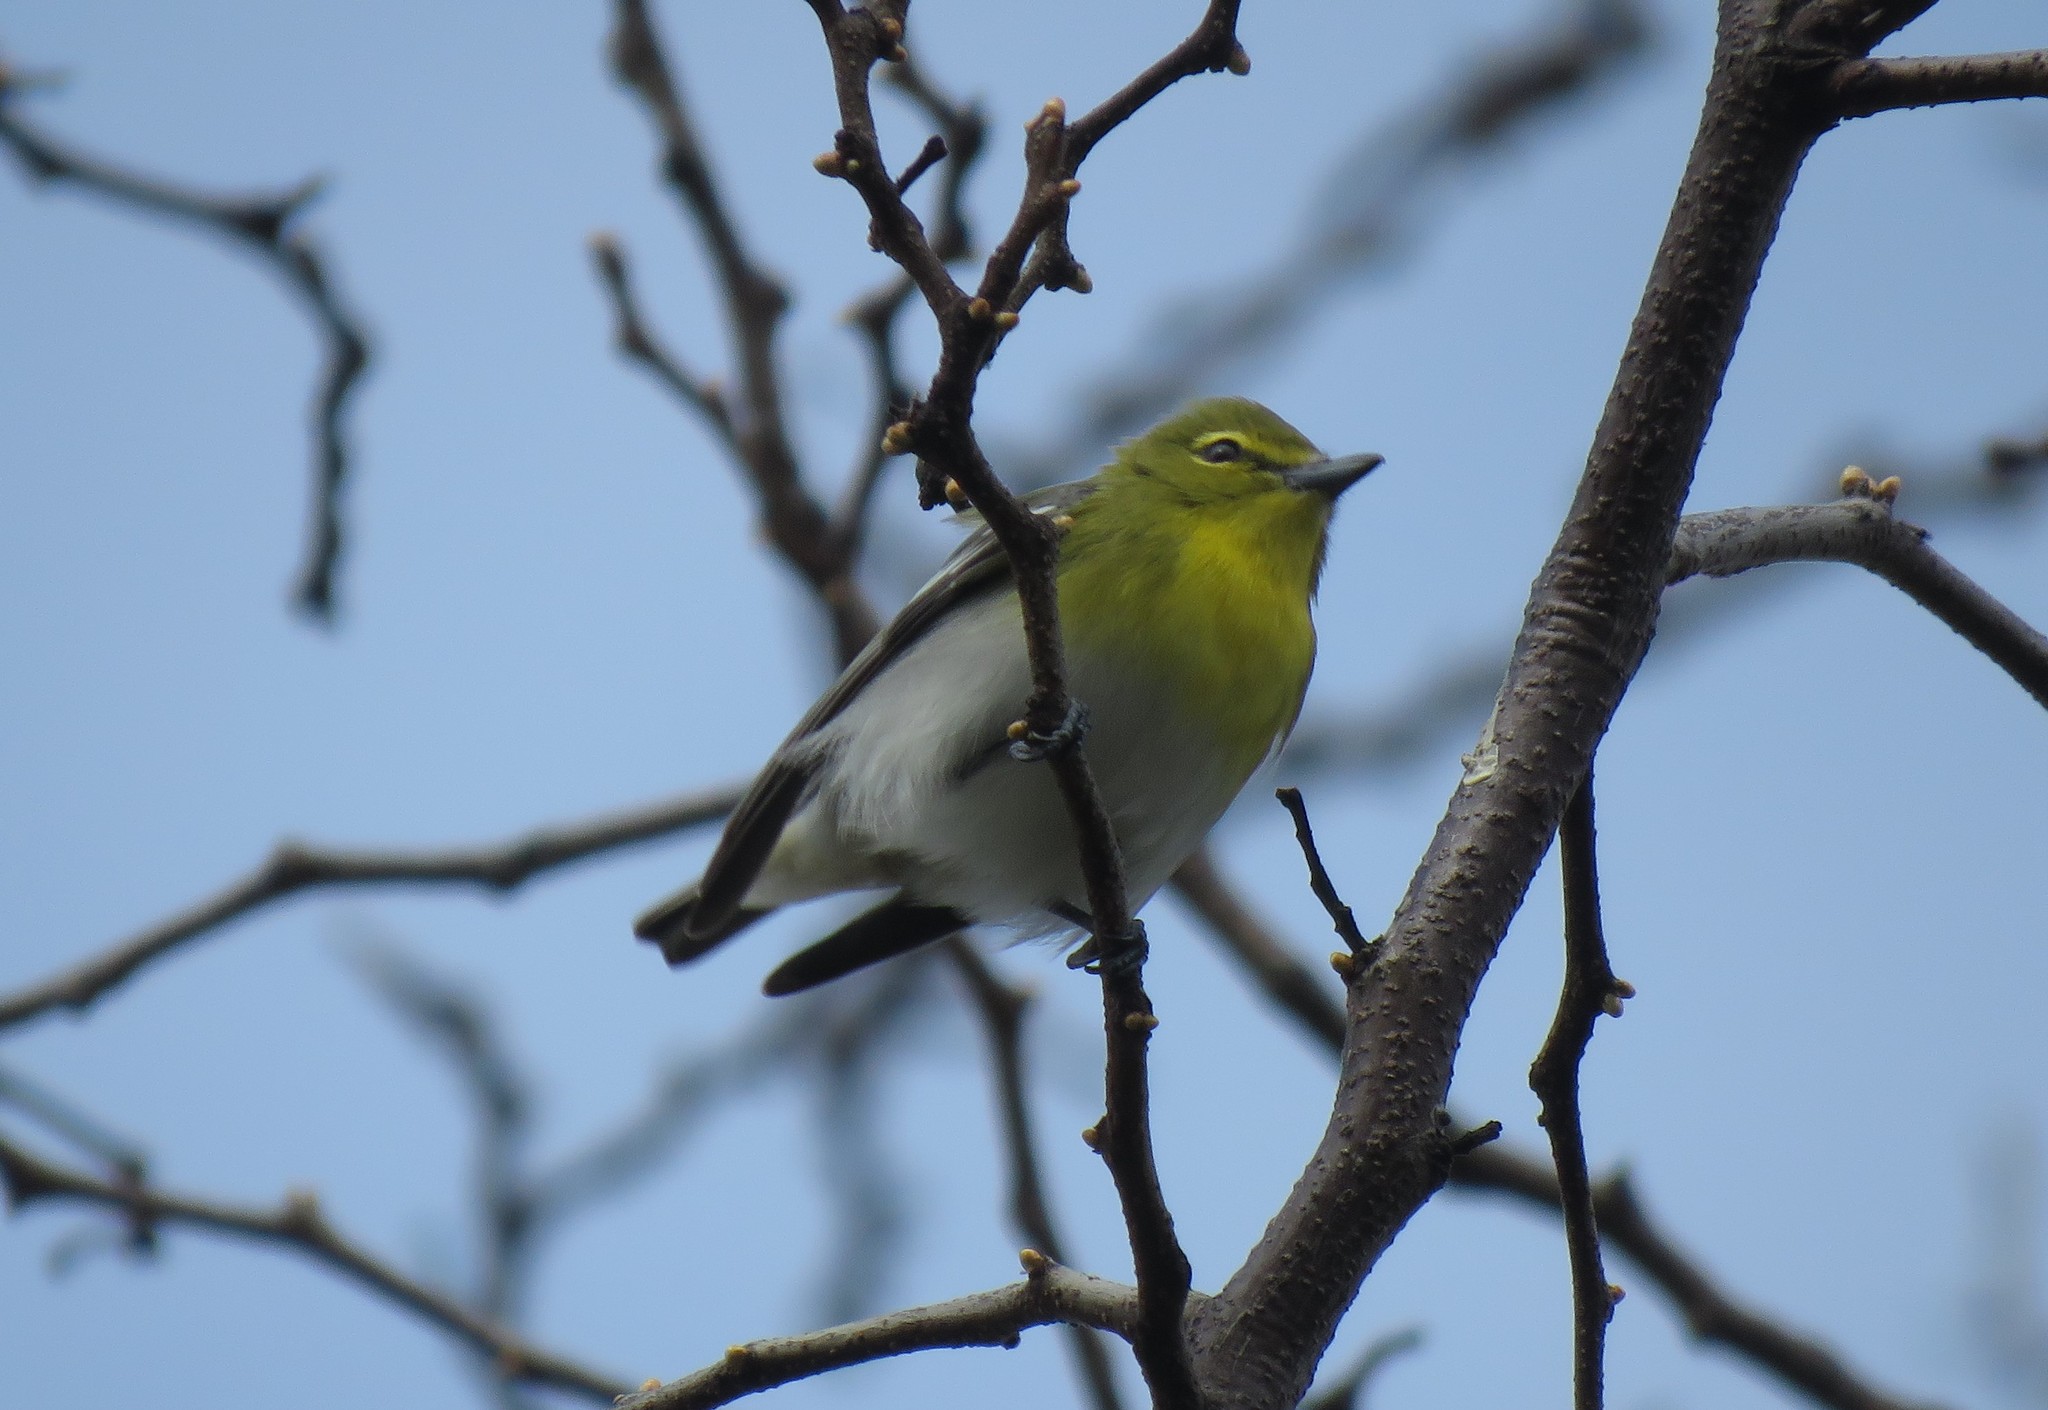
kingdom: Animalia
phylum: Chordata
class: Aves
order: Passeriformes
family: Vireonidae
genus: Vireo
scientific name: Vireo flavifrons
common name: Yellow-throated vireo
